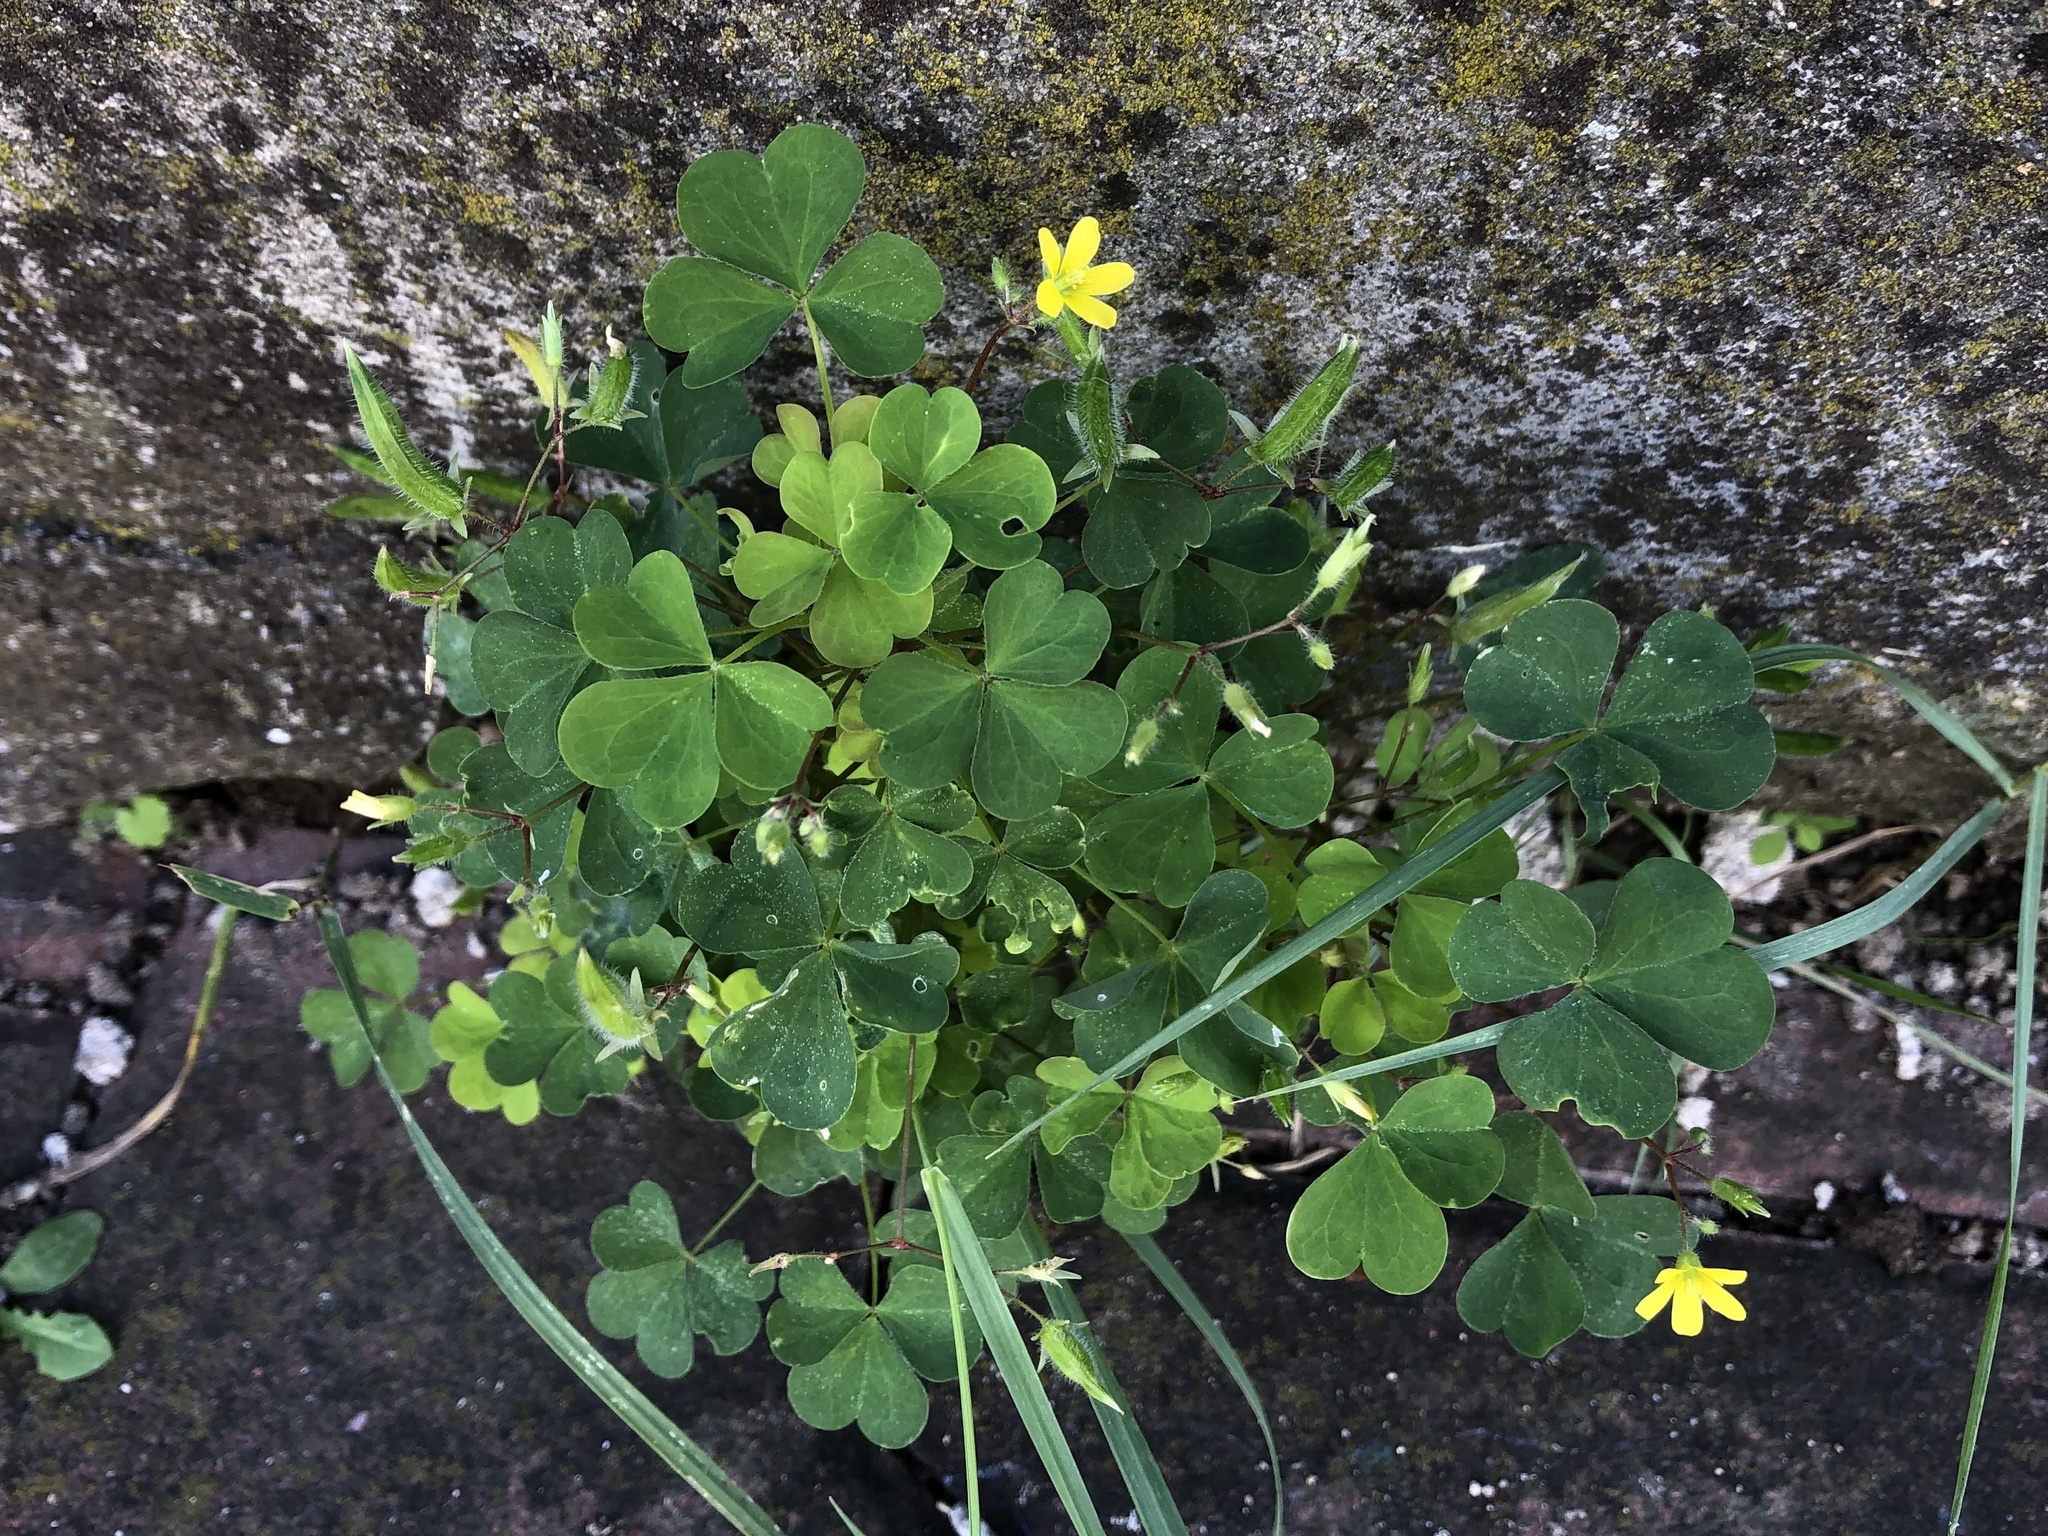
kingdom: Plantae
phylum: Tracheophyta
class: Magnoliopsida
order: Oxalidales
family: Oxalidaceae
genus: Oxalis
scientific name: Oxalis stricta
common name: Upright yellow-sorrel
